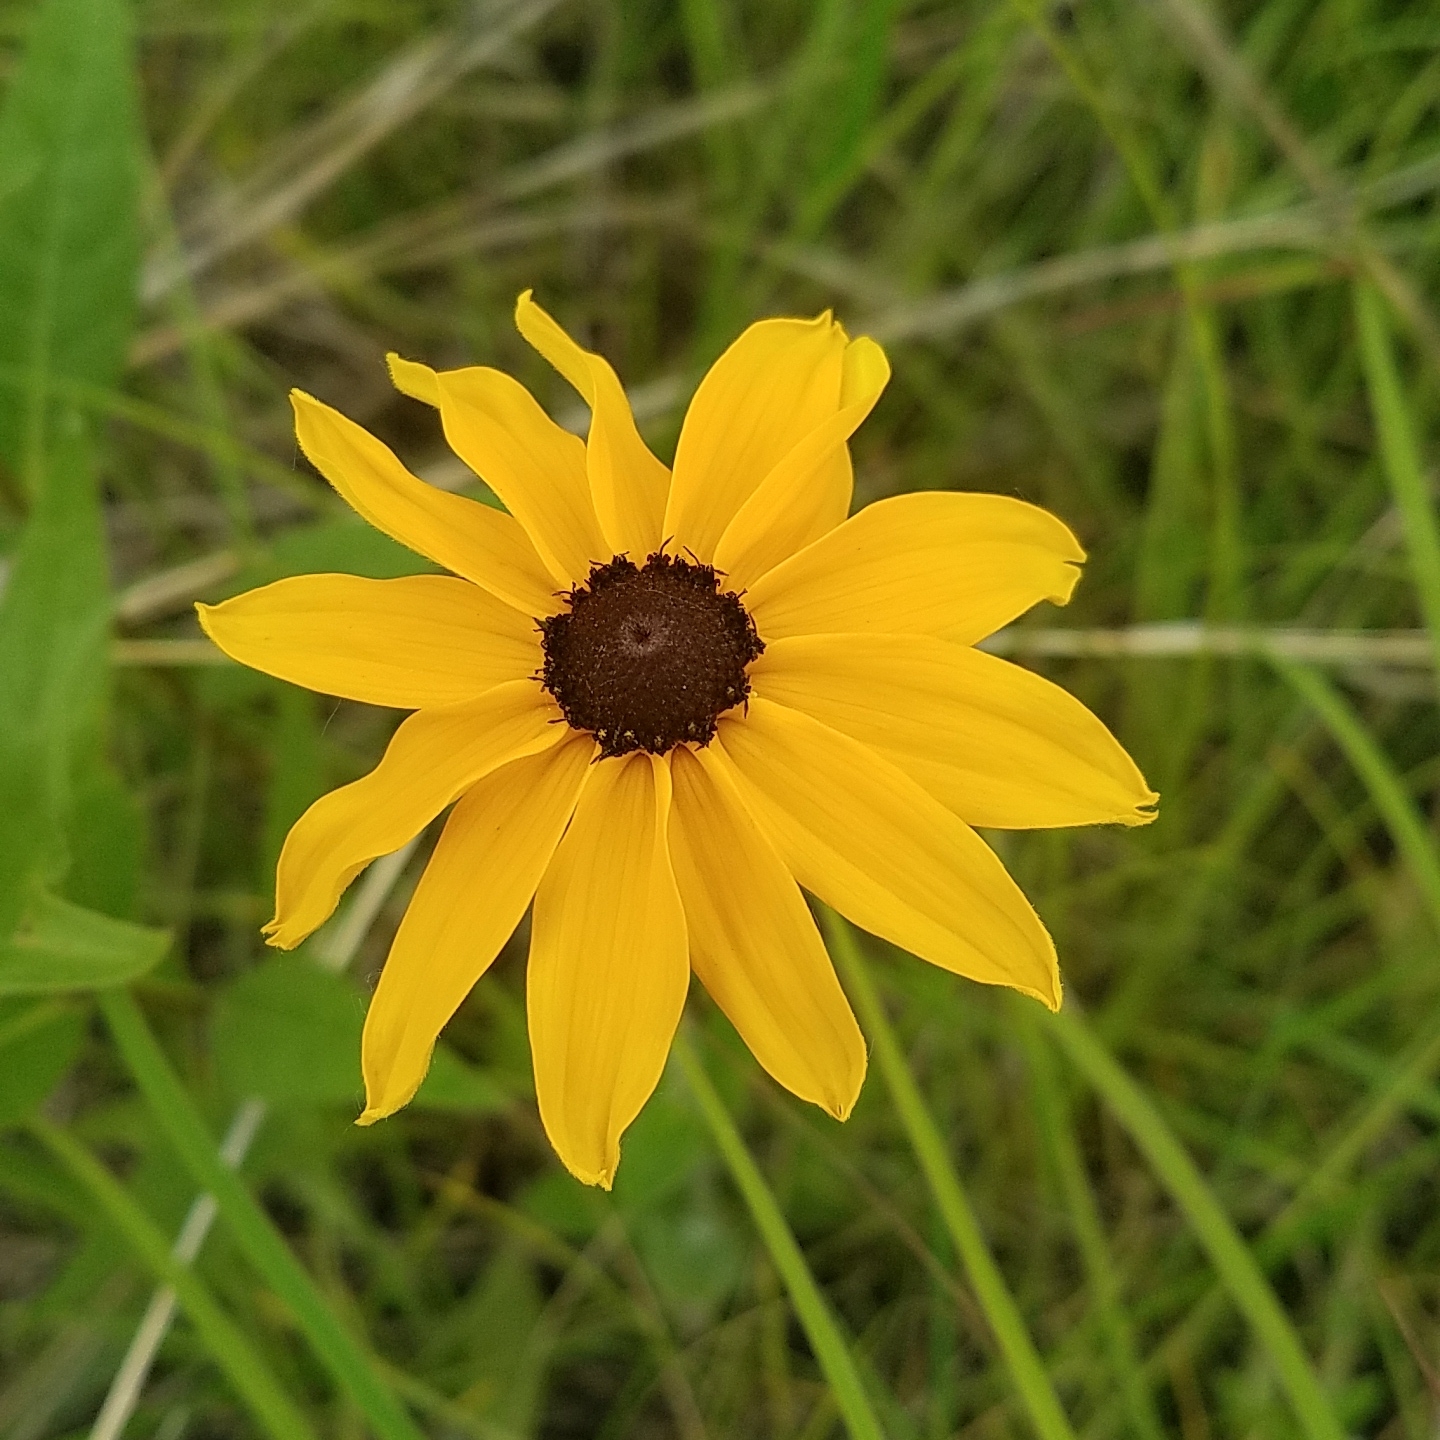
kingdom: Plantae
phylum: Tracheophyta
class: Magnoliopsida
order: Asterales
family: Asteraceae
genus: Rudbeckia
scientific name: Rudbeckia hirta
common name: Black-eyed-susan
